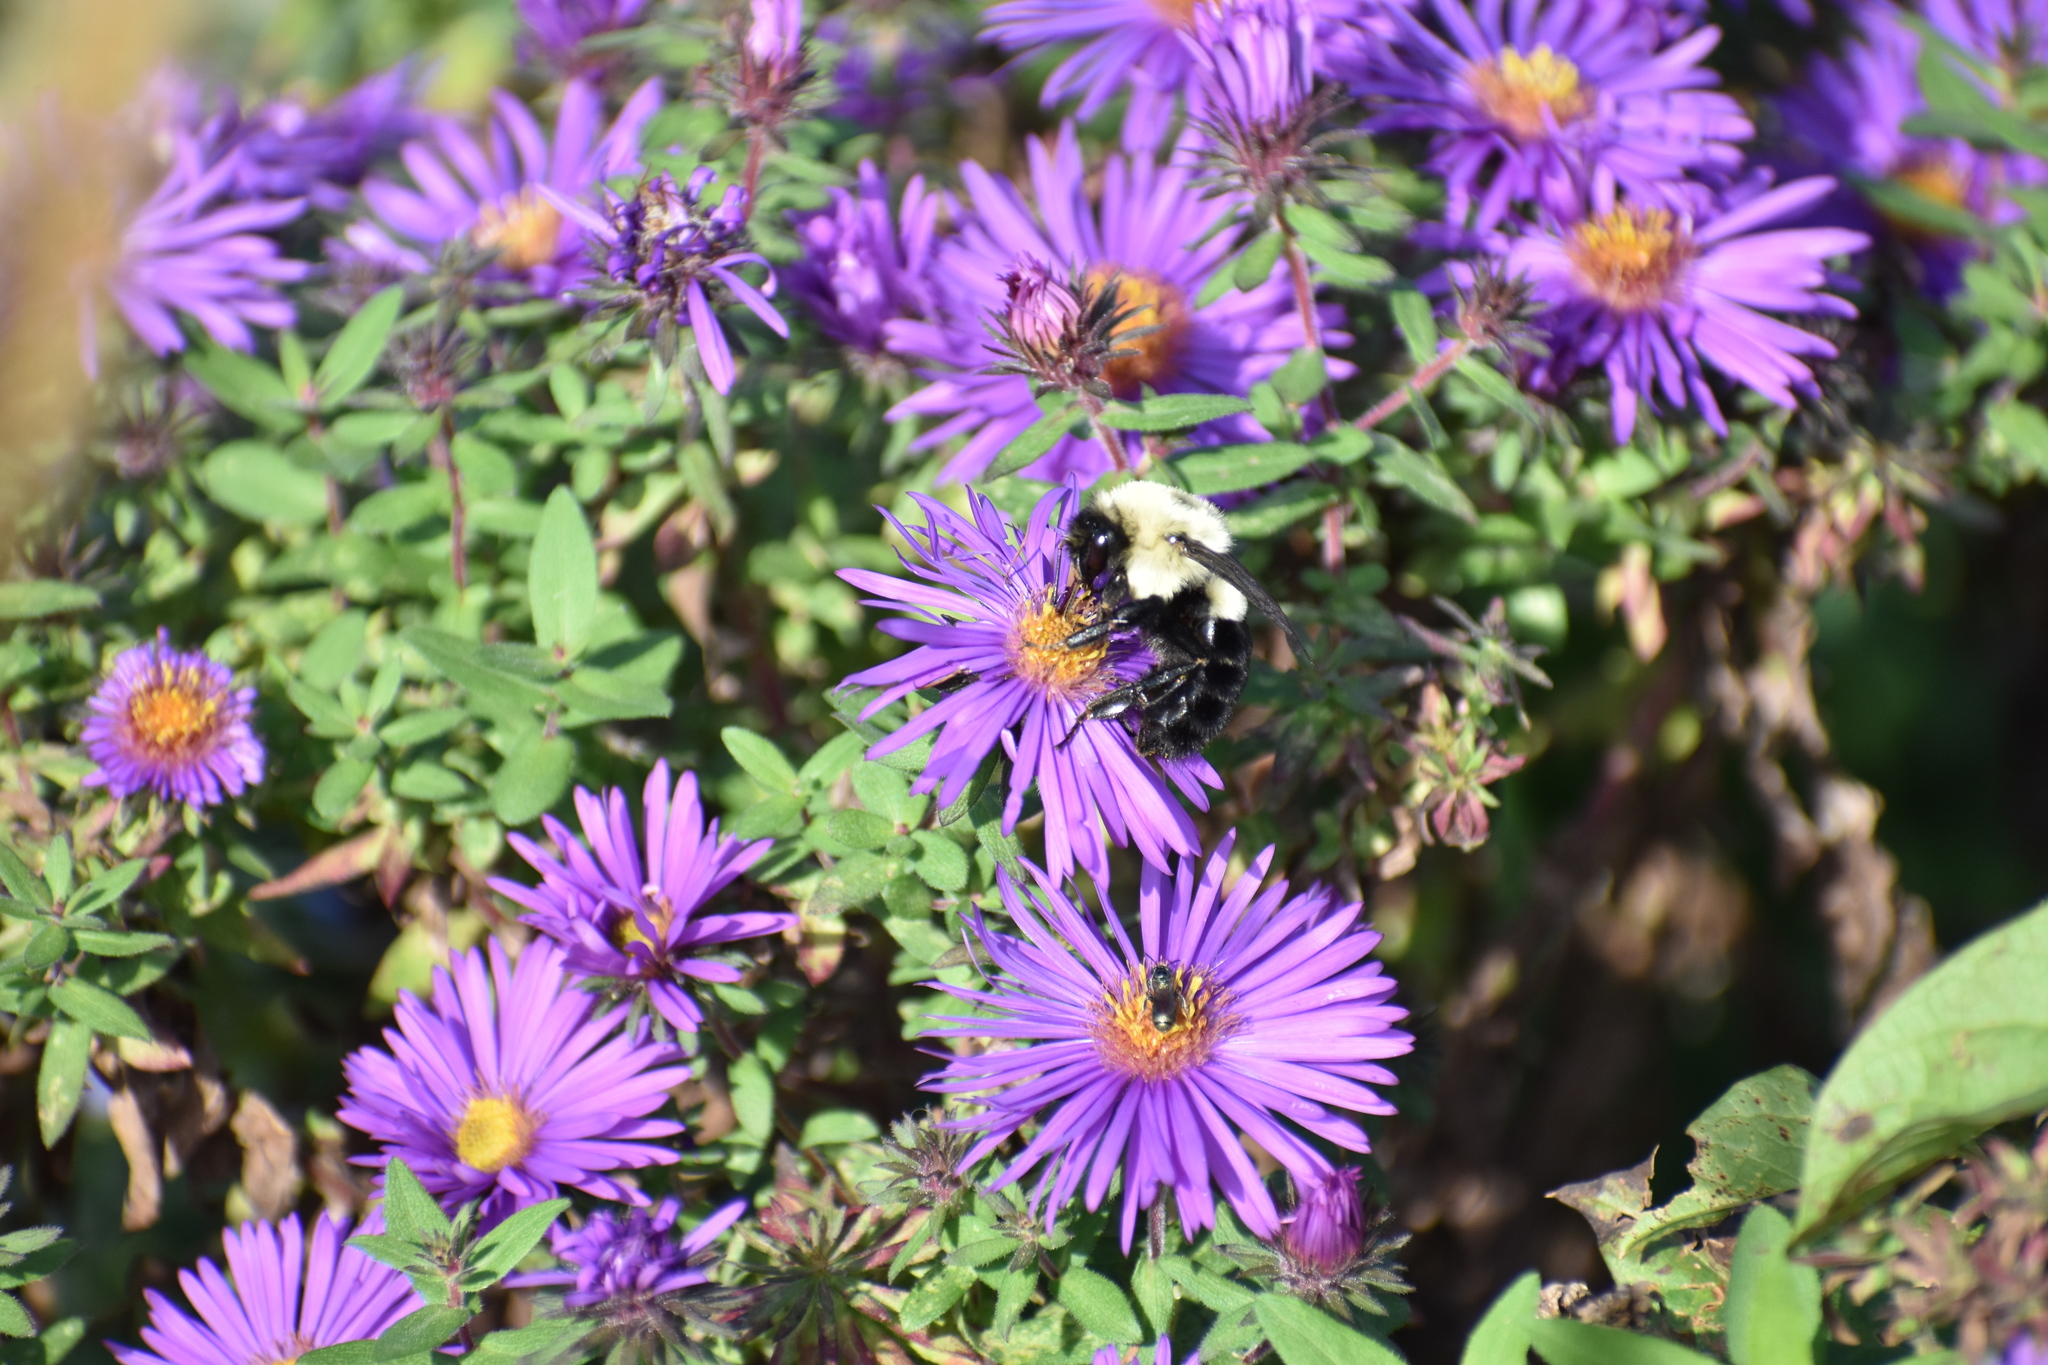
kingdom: Animalia
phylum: Arthropoda
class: Insecta
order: Hymenoptera
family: Apidae
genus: Bombus
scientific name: Bombus impatiens
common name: Common eastern bumble bee
